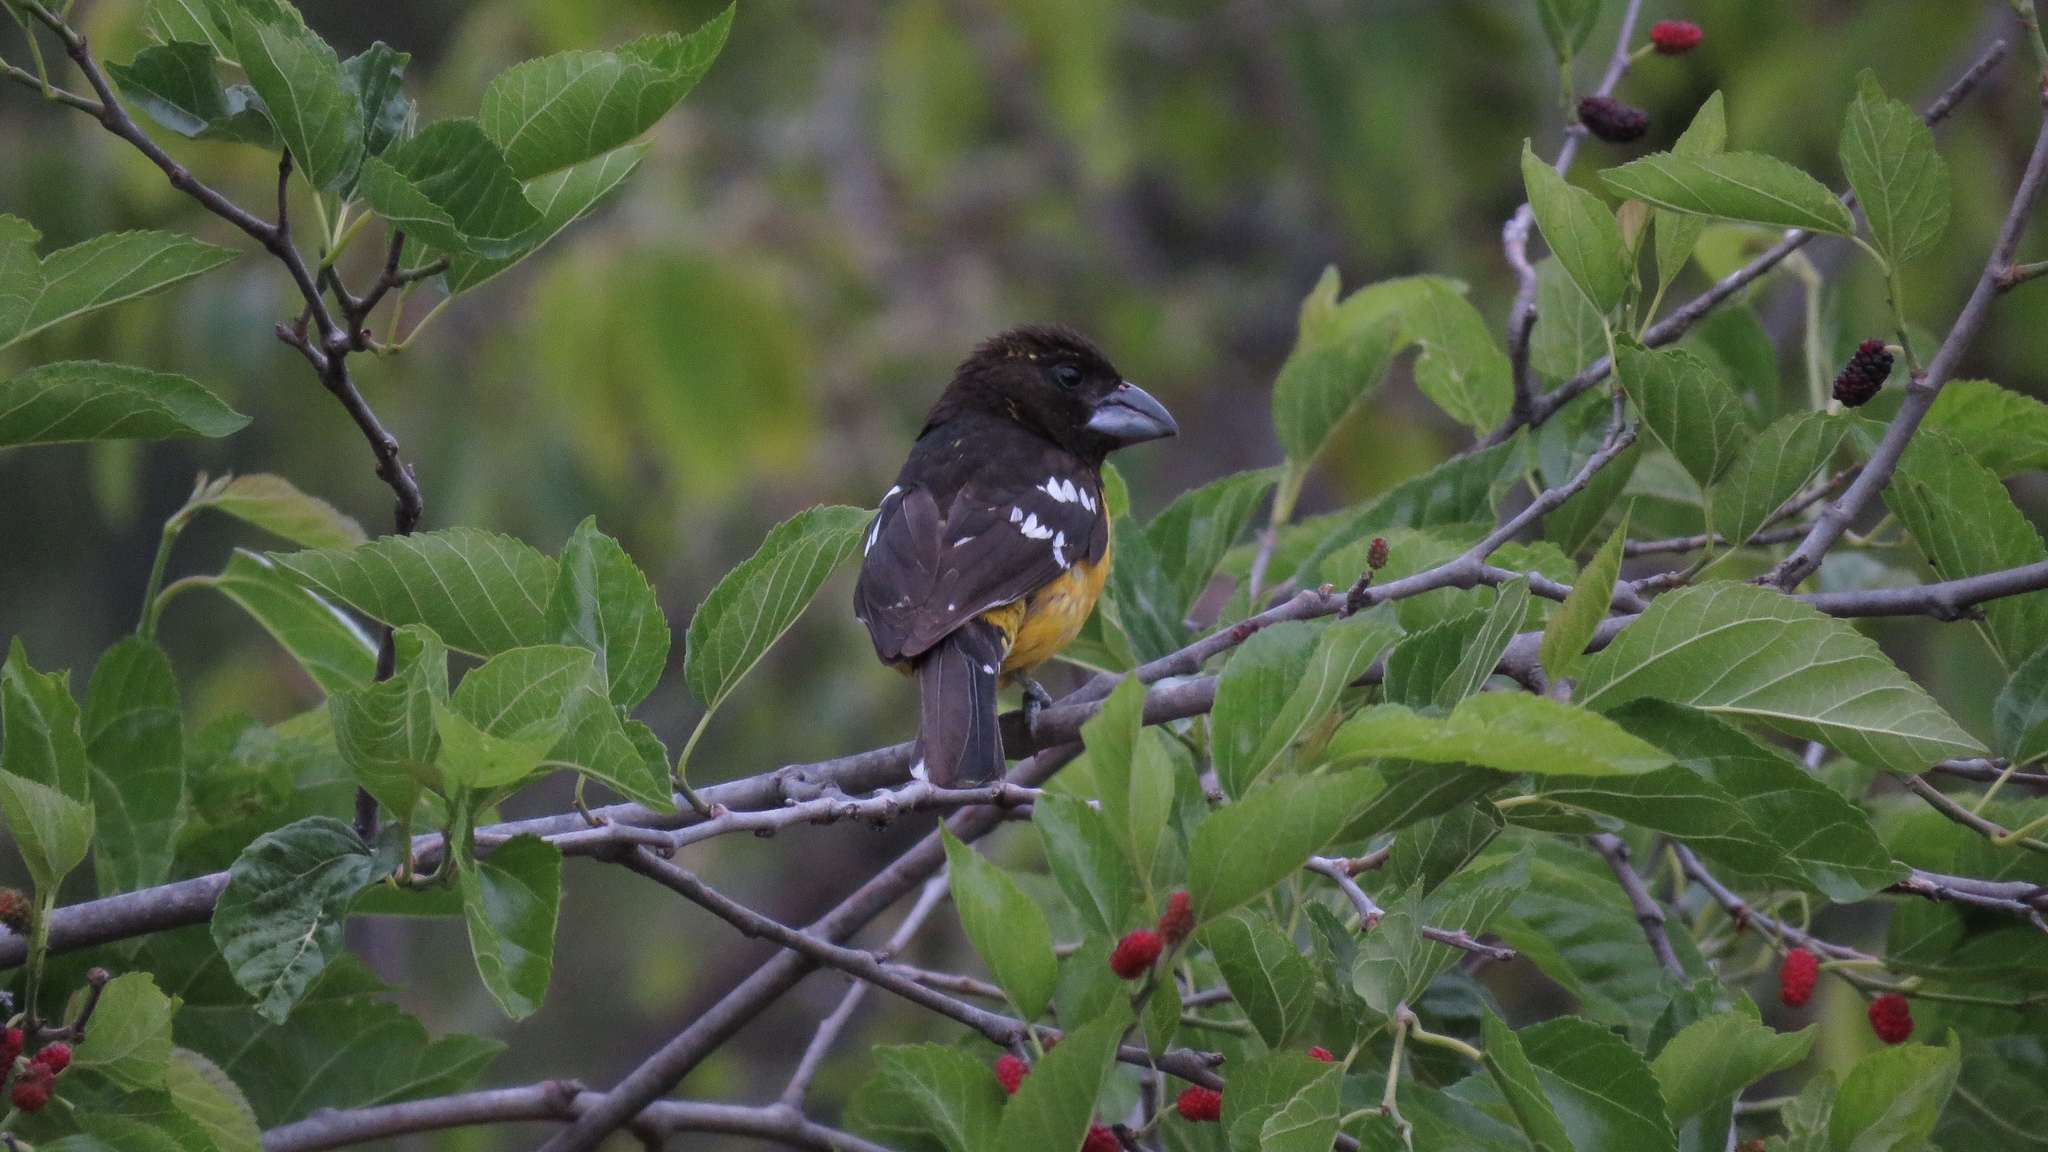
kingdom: Animalia
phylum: Chordata
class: Aves
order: Passeriformes
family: Cardinalidae
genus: Pheucticus
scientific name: Pheucticus aureoventris
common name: Black-backed grosbeak
